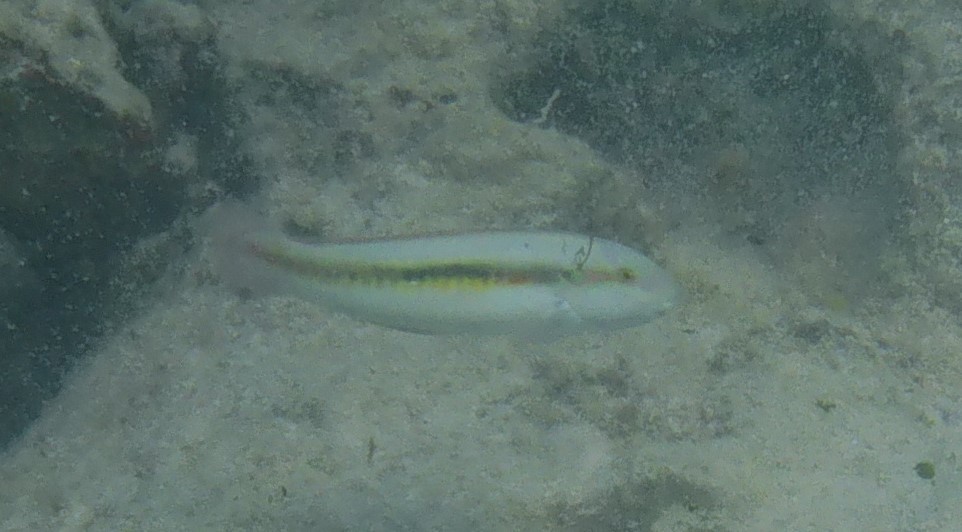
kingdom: Animalia
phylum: Chordata
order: Perciformes
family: Labridae
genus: Halichoeres
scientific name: Halichoeres bivittatus
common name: Slippery dick
